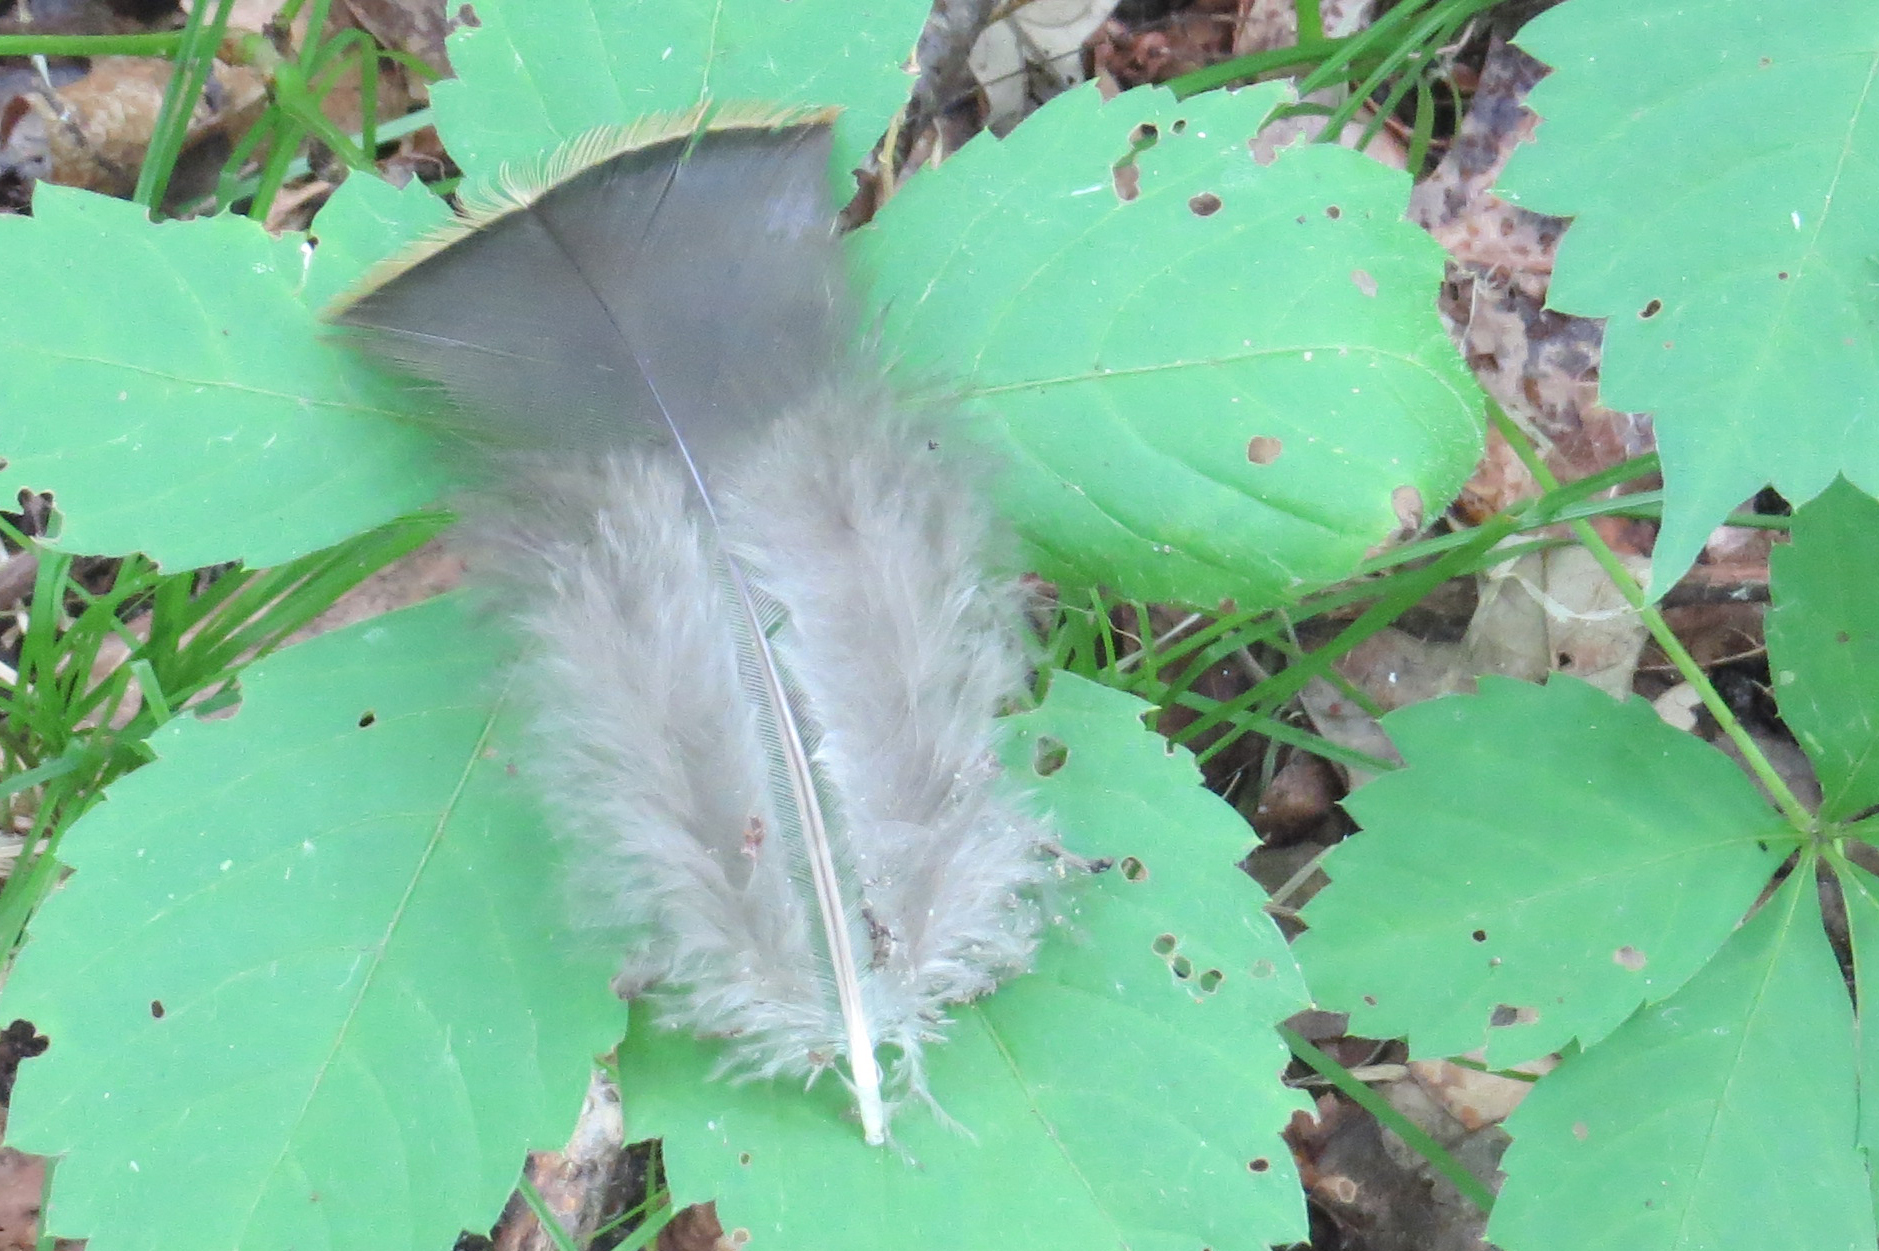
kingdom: Animalia
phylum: Chordata
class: Aves
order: Galliformes
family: Phasianidae
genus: Meleagris
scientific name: Meleagris gallopavo
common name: Wild turkey
